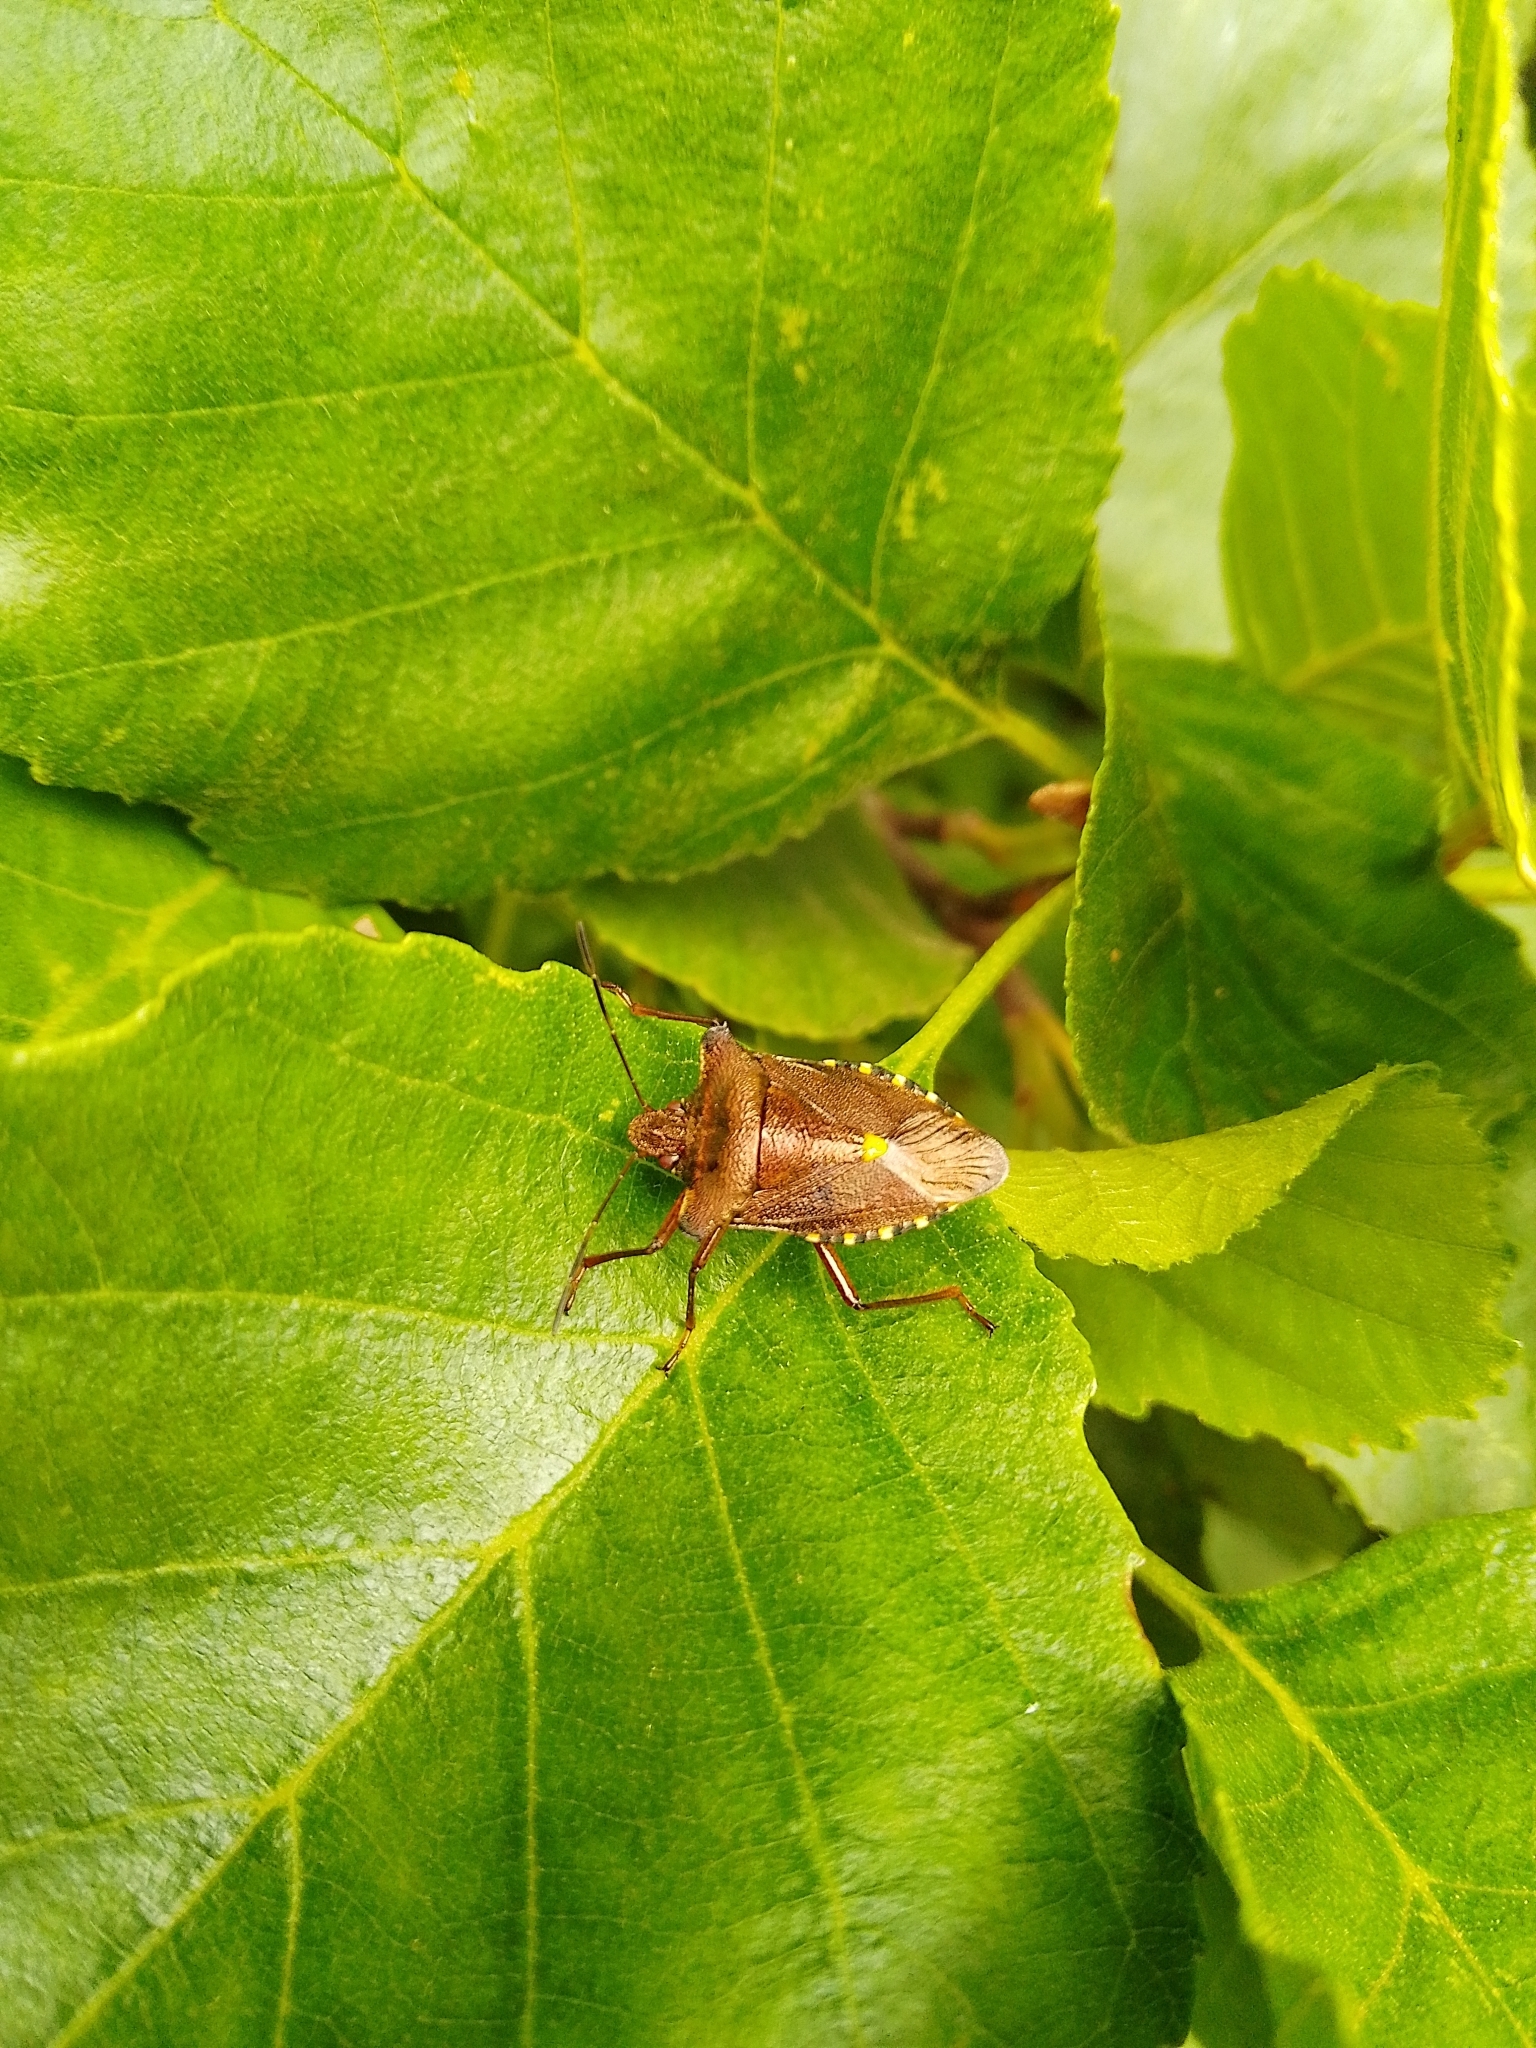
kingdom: Animalia
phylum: Arthropoda
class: Insecta
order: Hemiptera
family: Pentatomidae
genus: Pentatoma
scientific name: Pentatoma rufipes
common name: Forest bug
